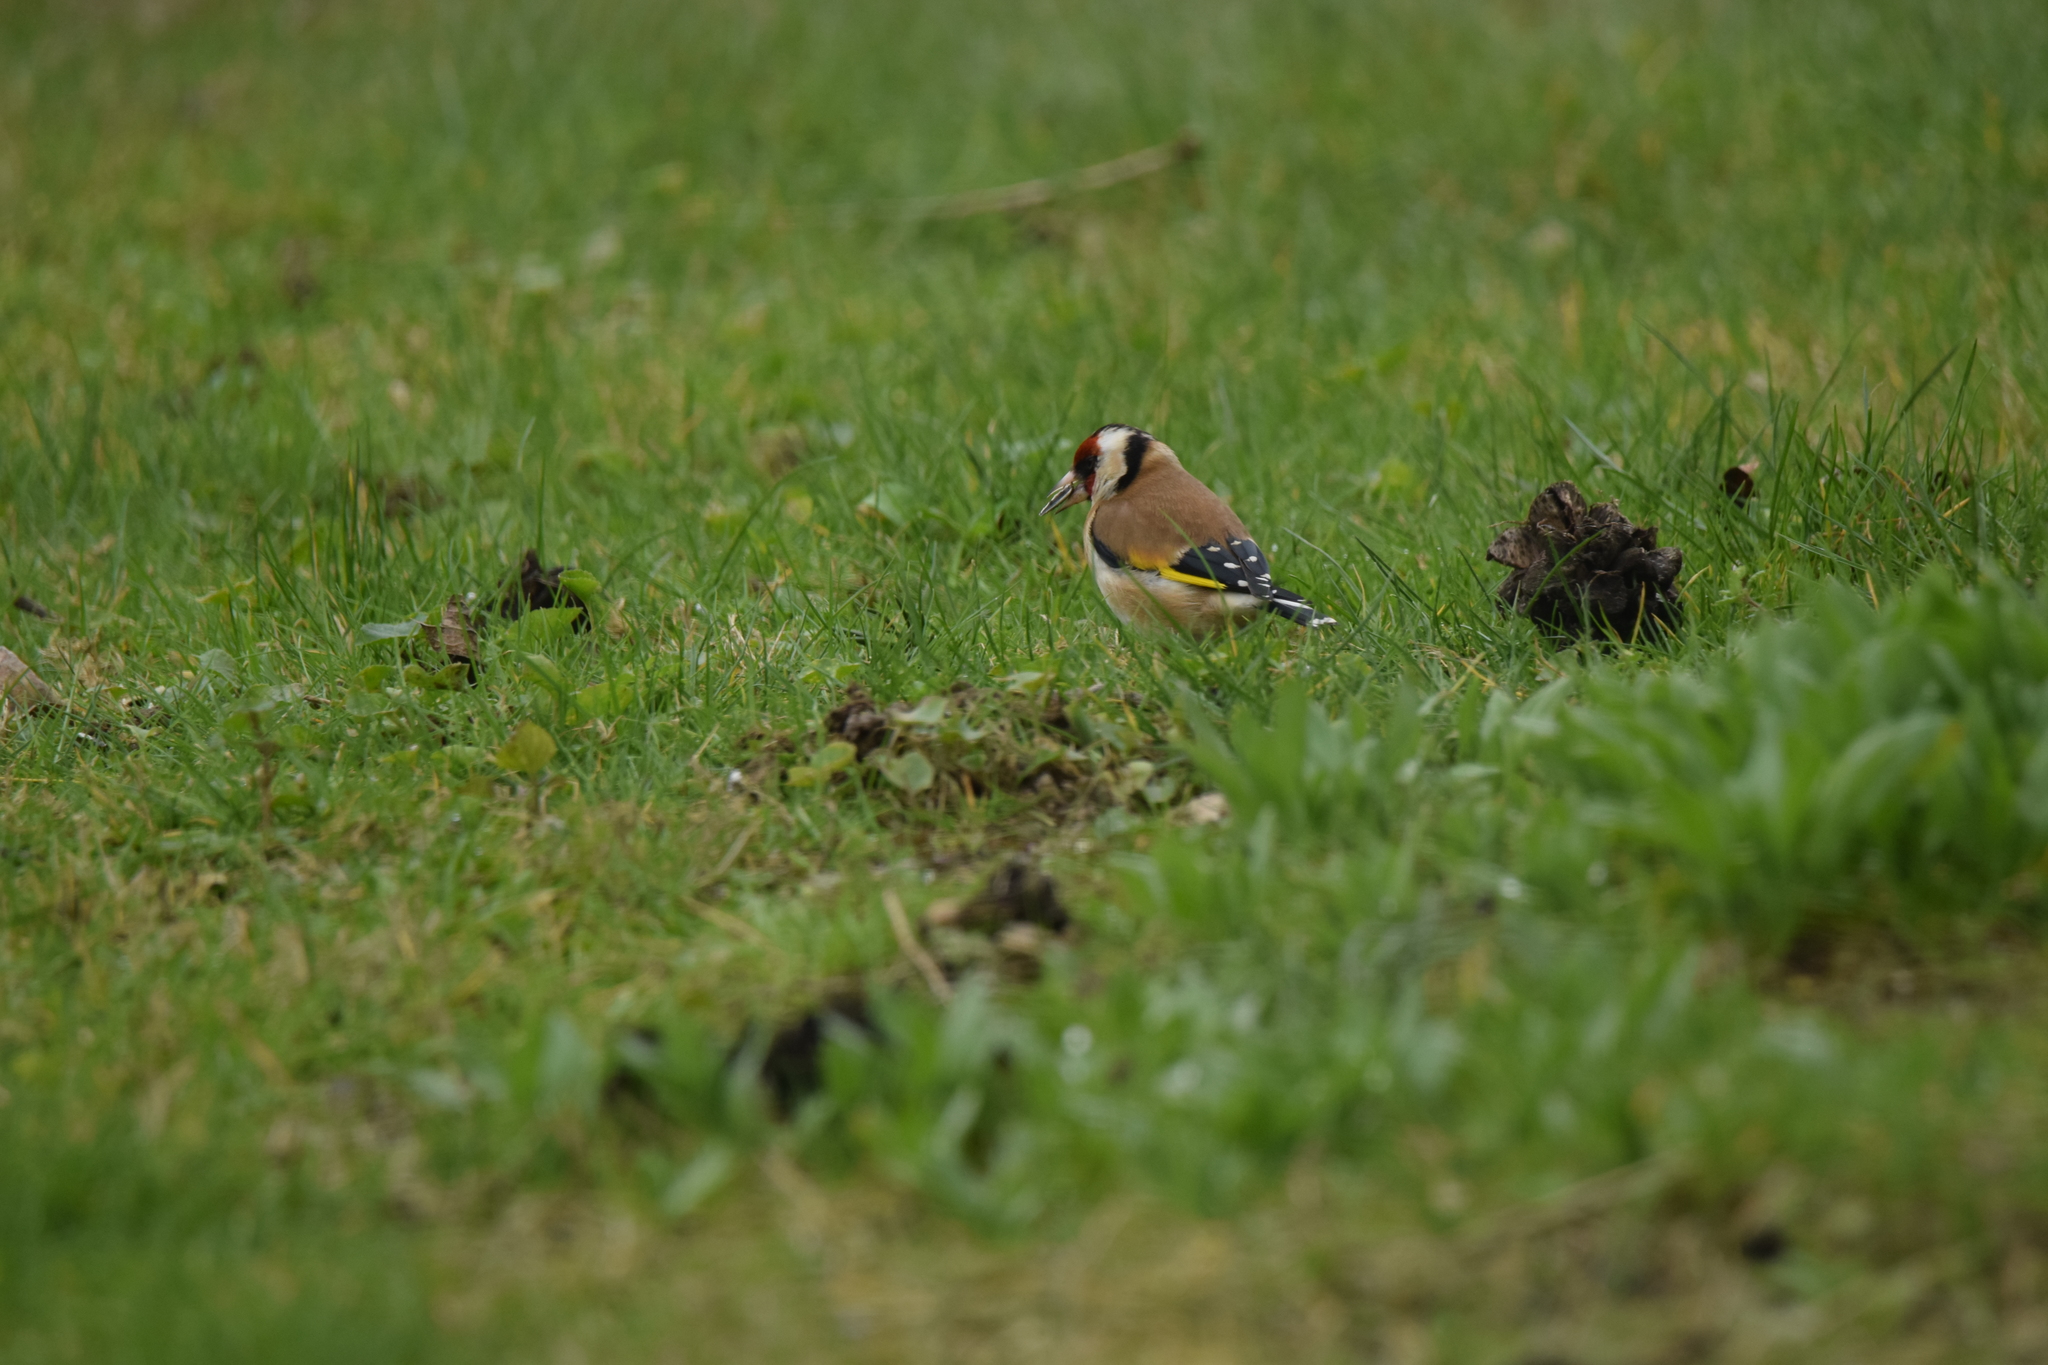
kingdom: Animalia
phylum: Chordata
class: Aves
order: Passeriformes
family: Fringillidae
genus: Carduelis
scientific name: Carduelis carduelis
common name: European goldfinch
